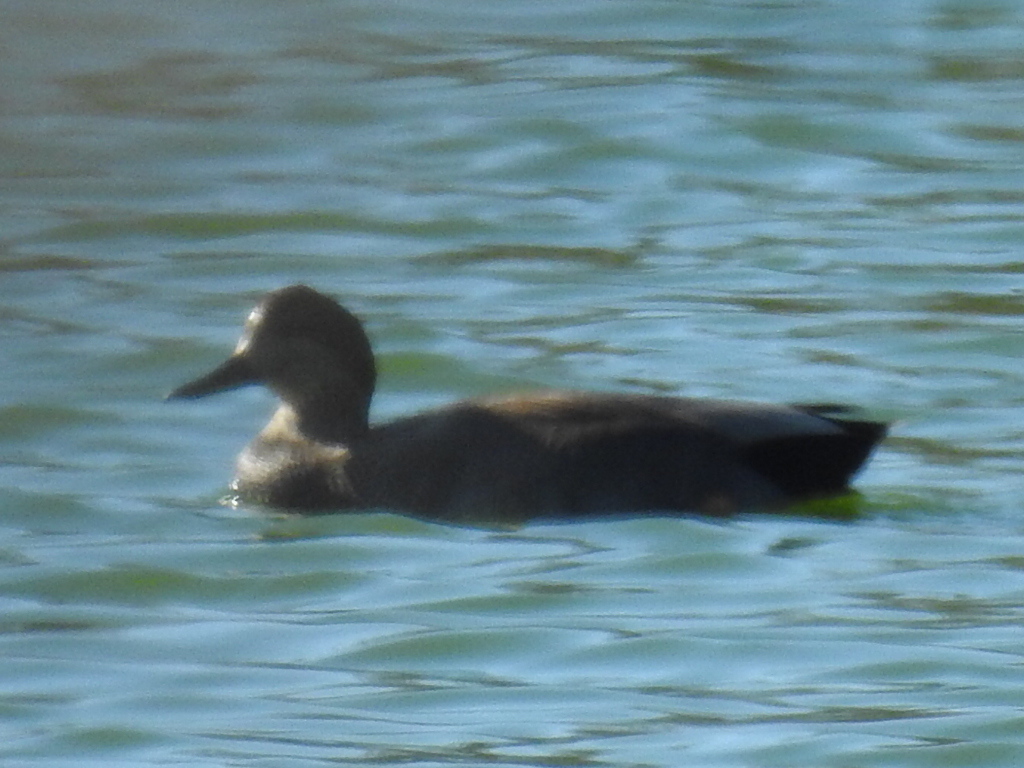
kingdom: Animalia
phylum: Chordata
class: Aves
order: Anseriformes
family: Anatidae
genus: Mareca
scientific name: Mareca strepera
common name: Gadwall
